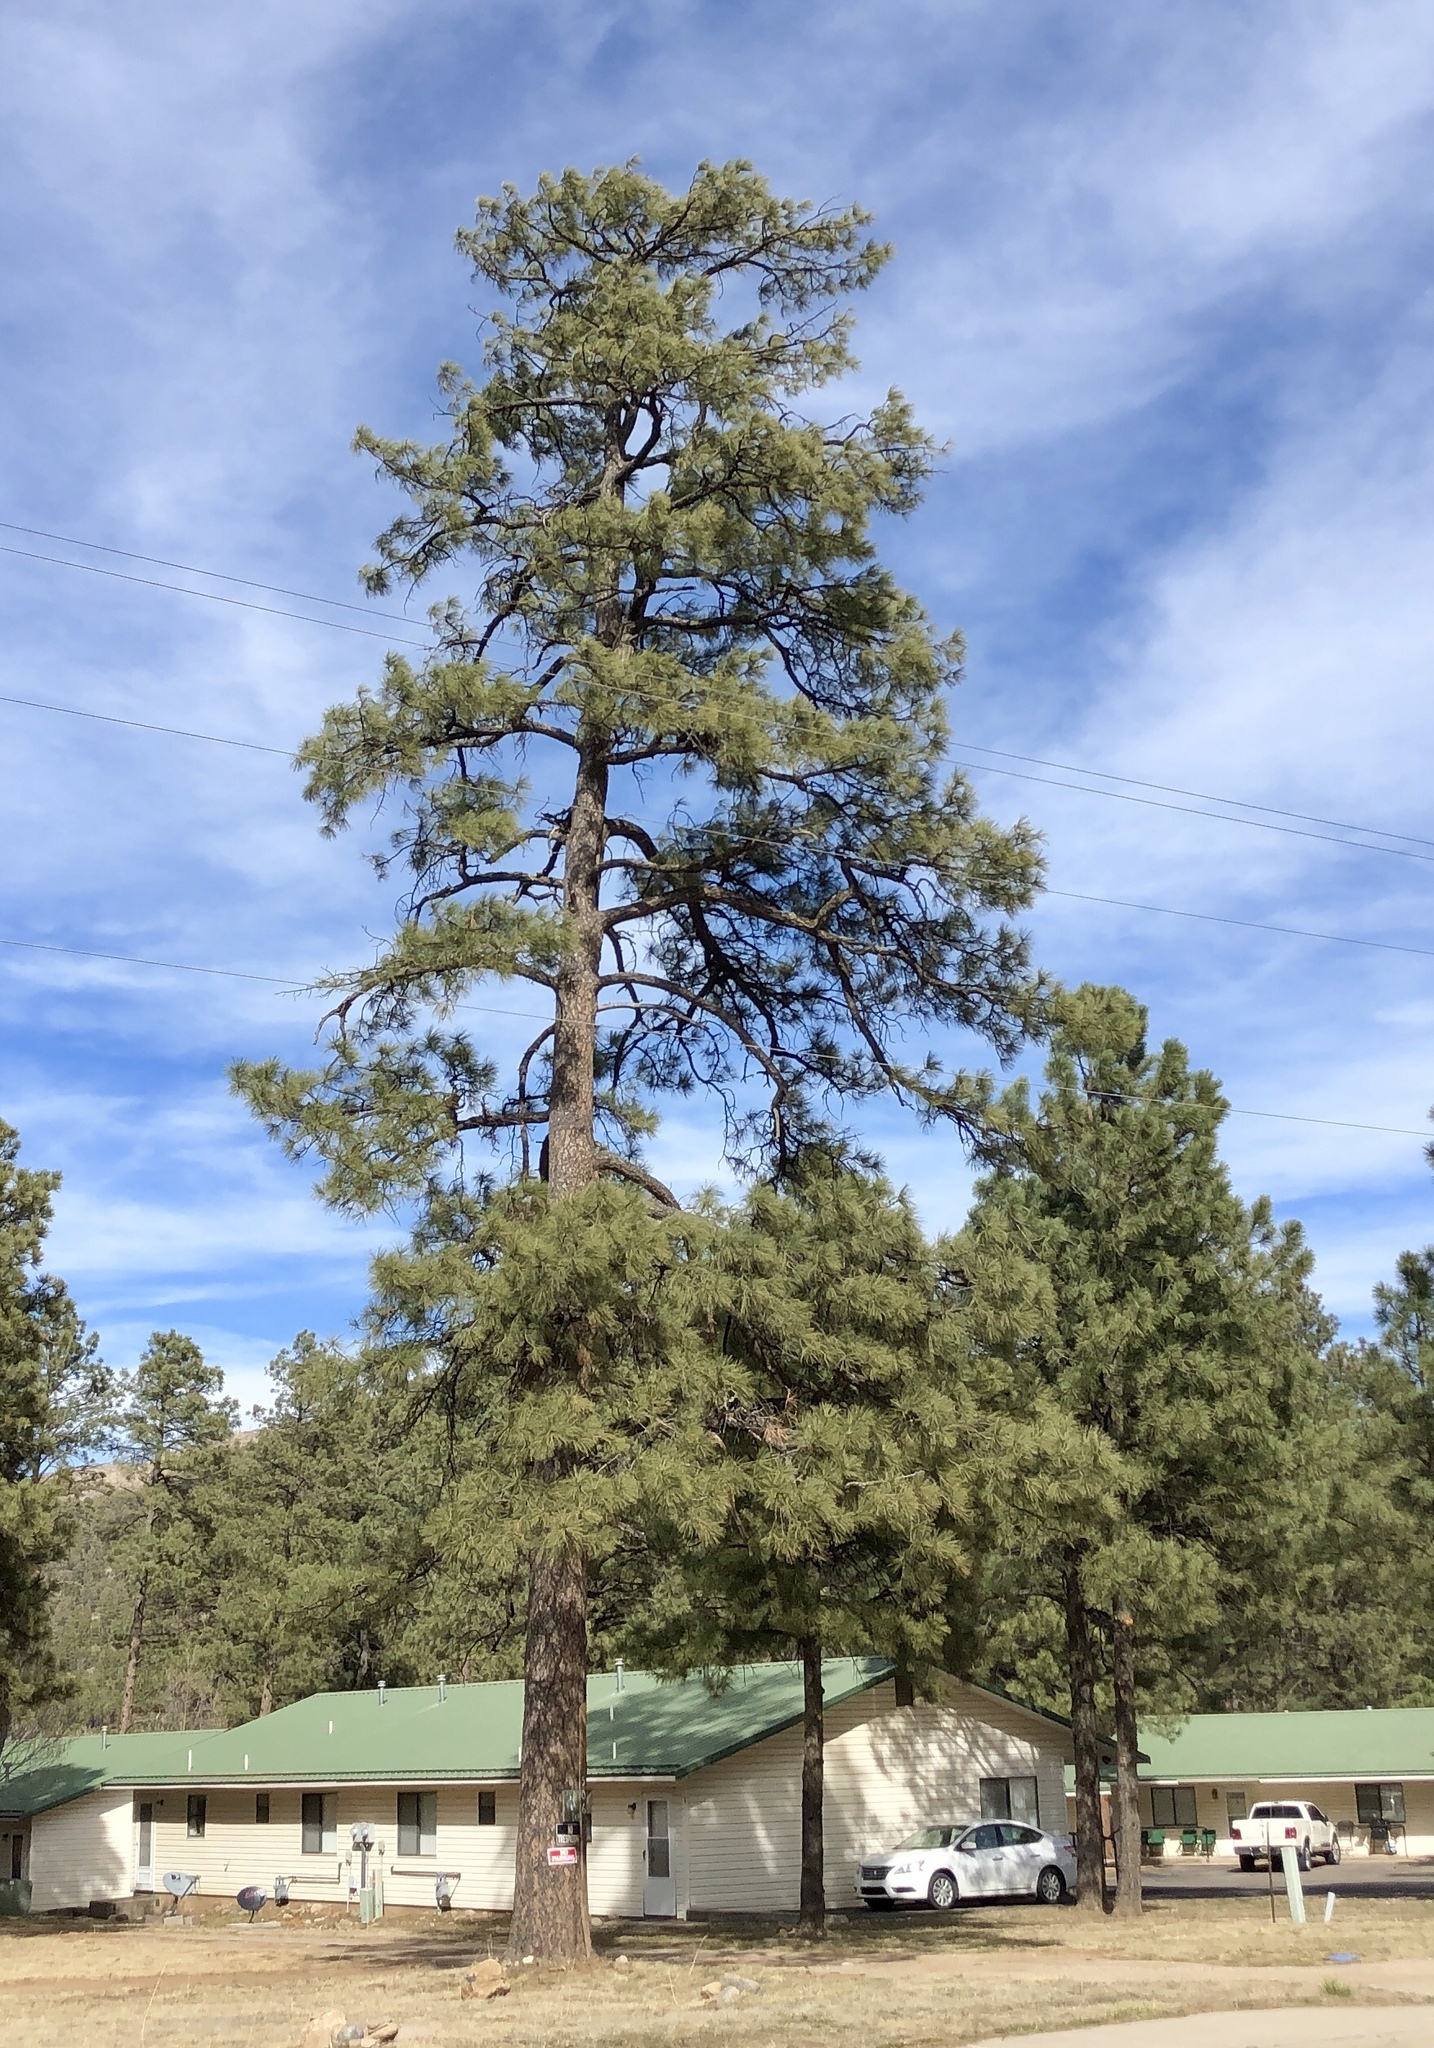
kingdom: Plantae
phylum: Tracheophyta
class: Pinopsida
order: Pinales
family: Pinaceae
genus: Pinus
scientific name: Pinus ponderosa
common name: Western yellow-pine
